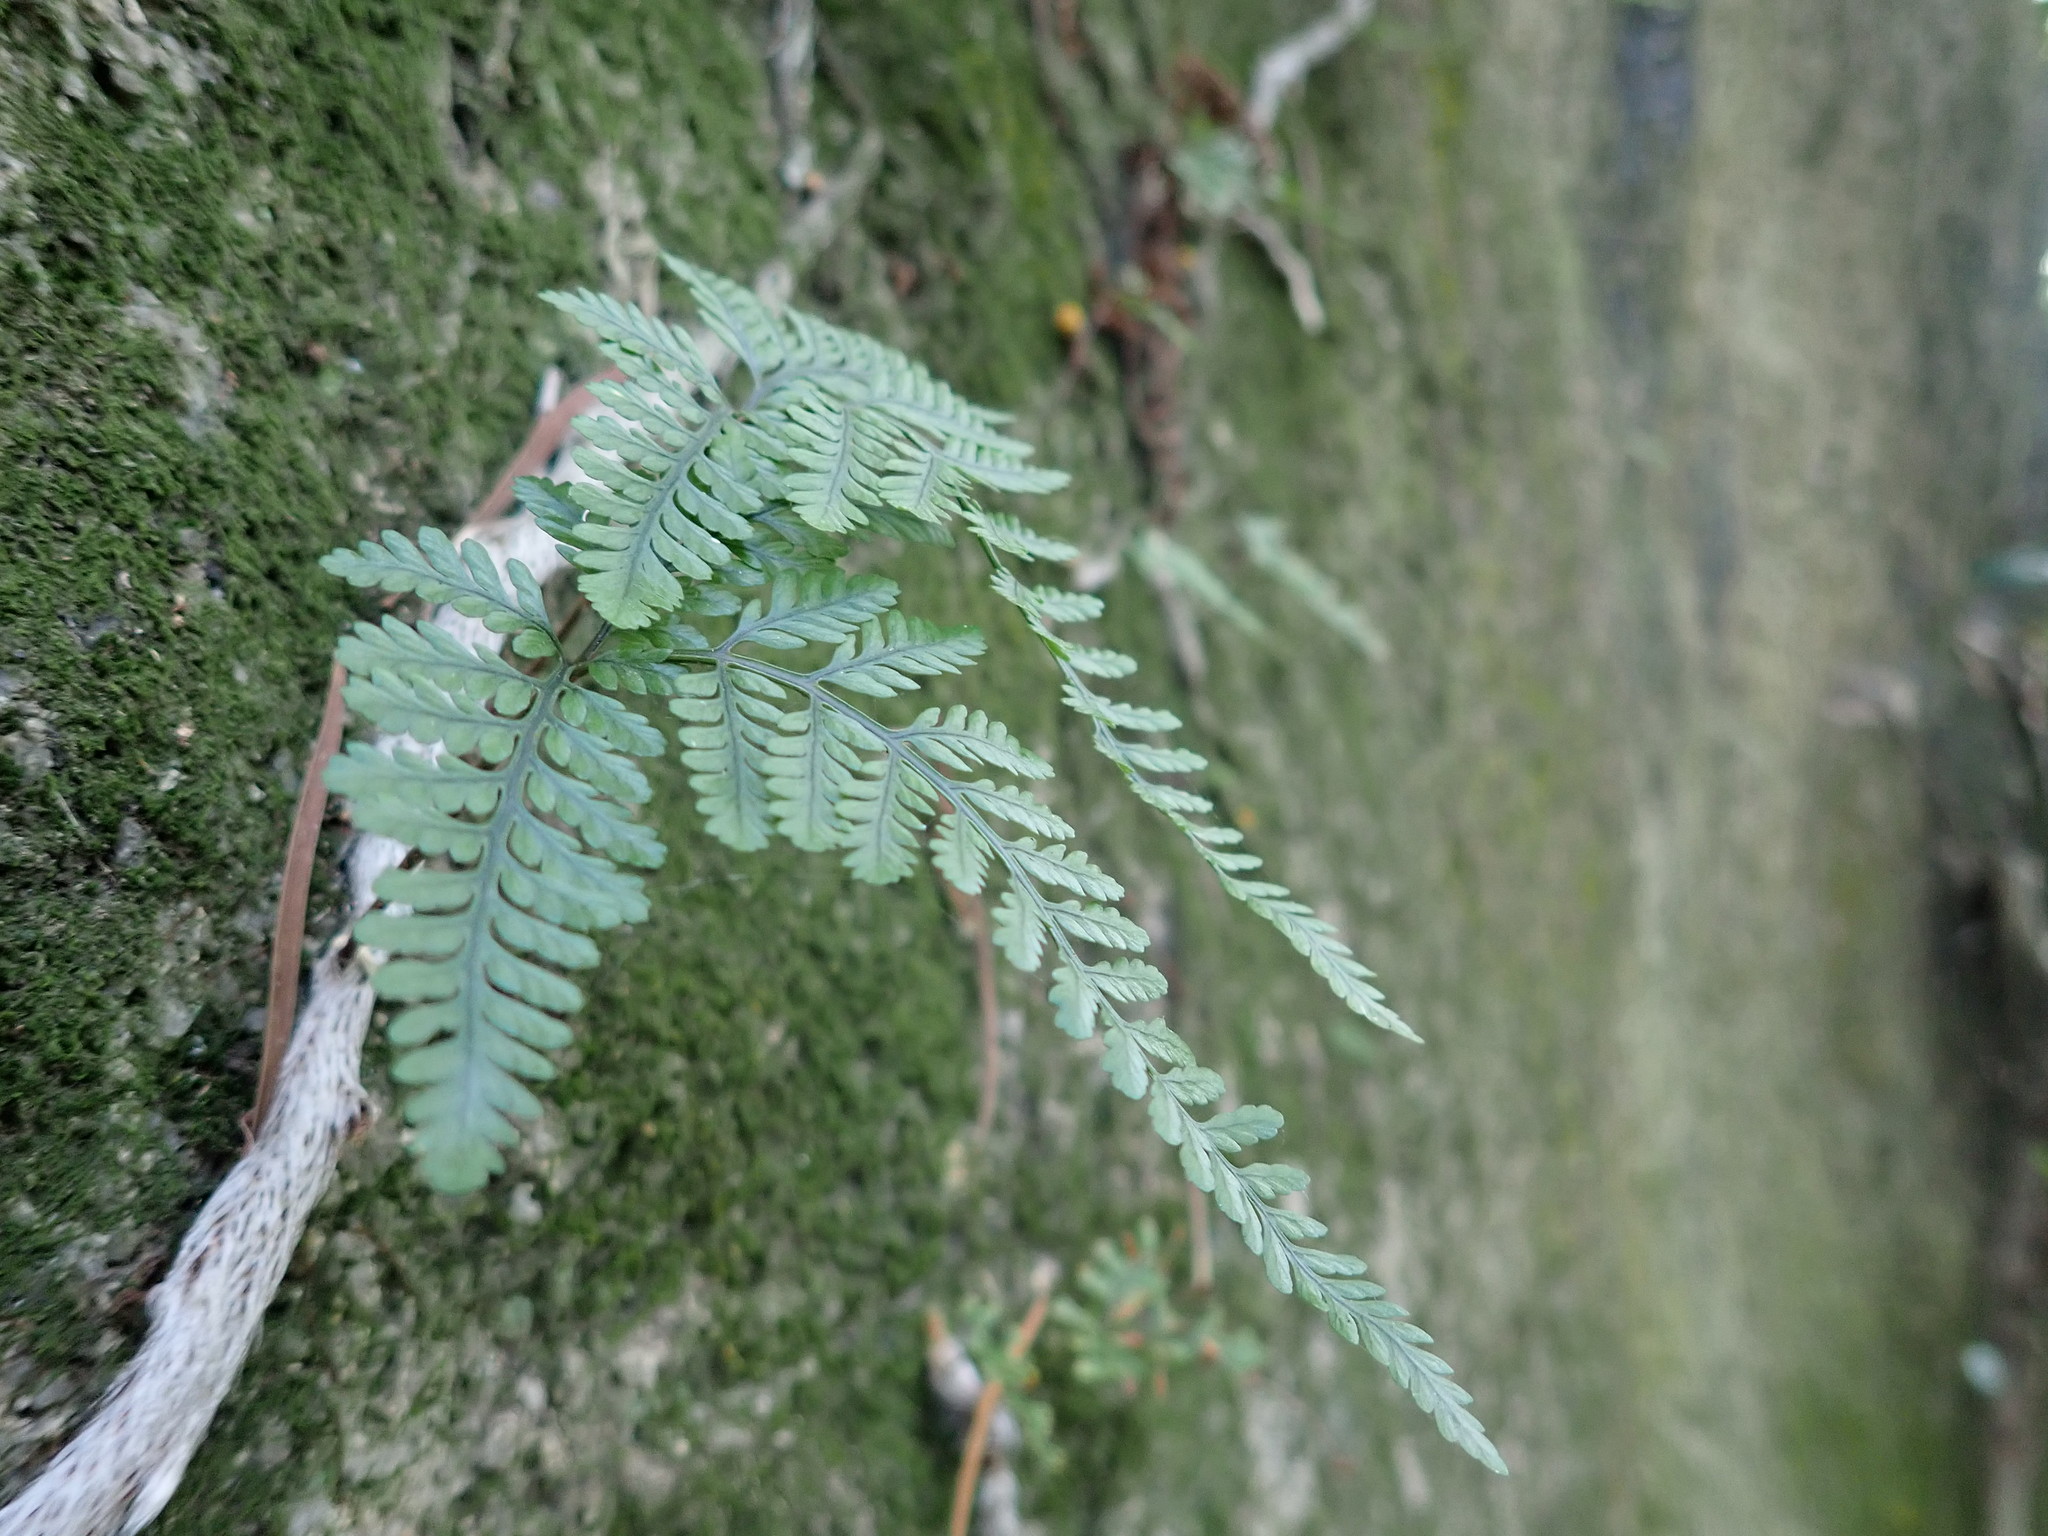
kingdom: Plantae
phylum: Tracheophyta
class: Polypodiopsida
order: Polypodiales
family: Davalliaceae
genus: Davallia
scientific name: Davallia griffithiana
